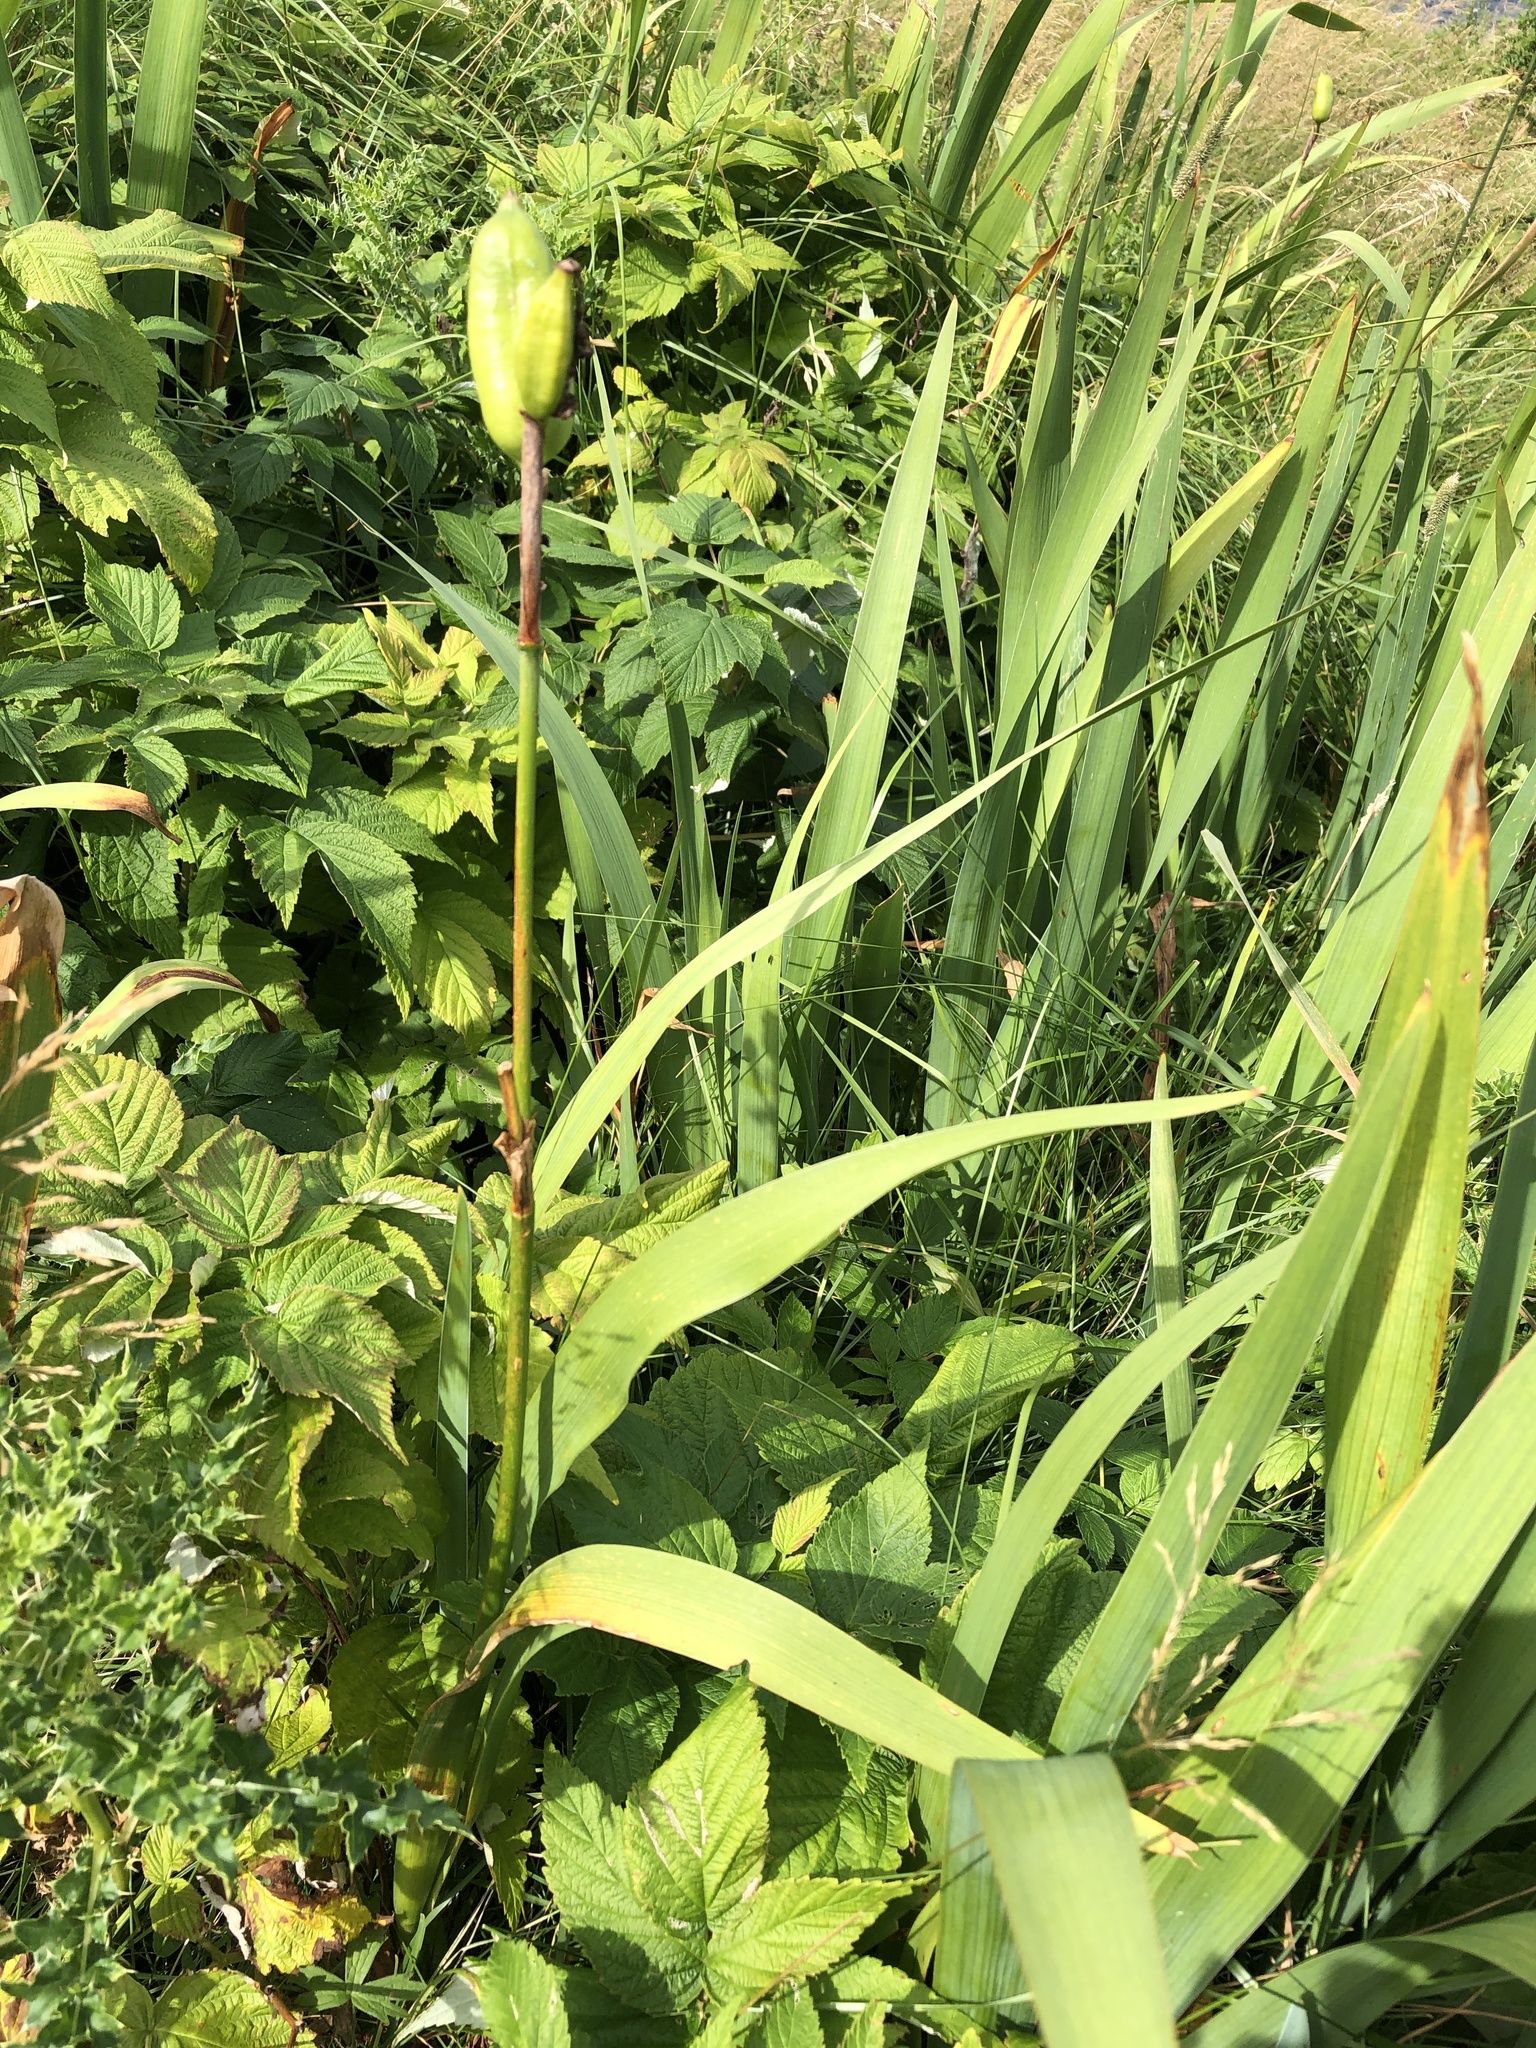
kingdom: Plantae
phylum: Tracheophyta
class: Liliopsida
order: Asparagales
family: Iridaceae
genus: Iris
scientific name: Iris versicolor
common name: Purple iris
